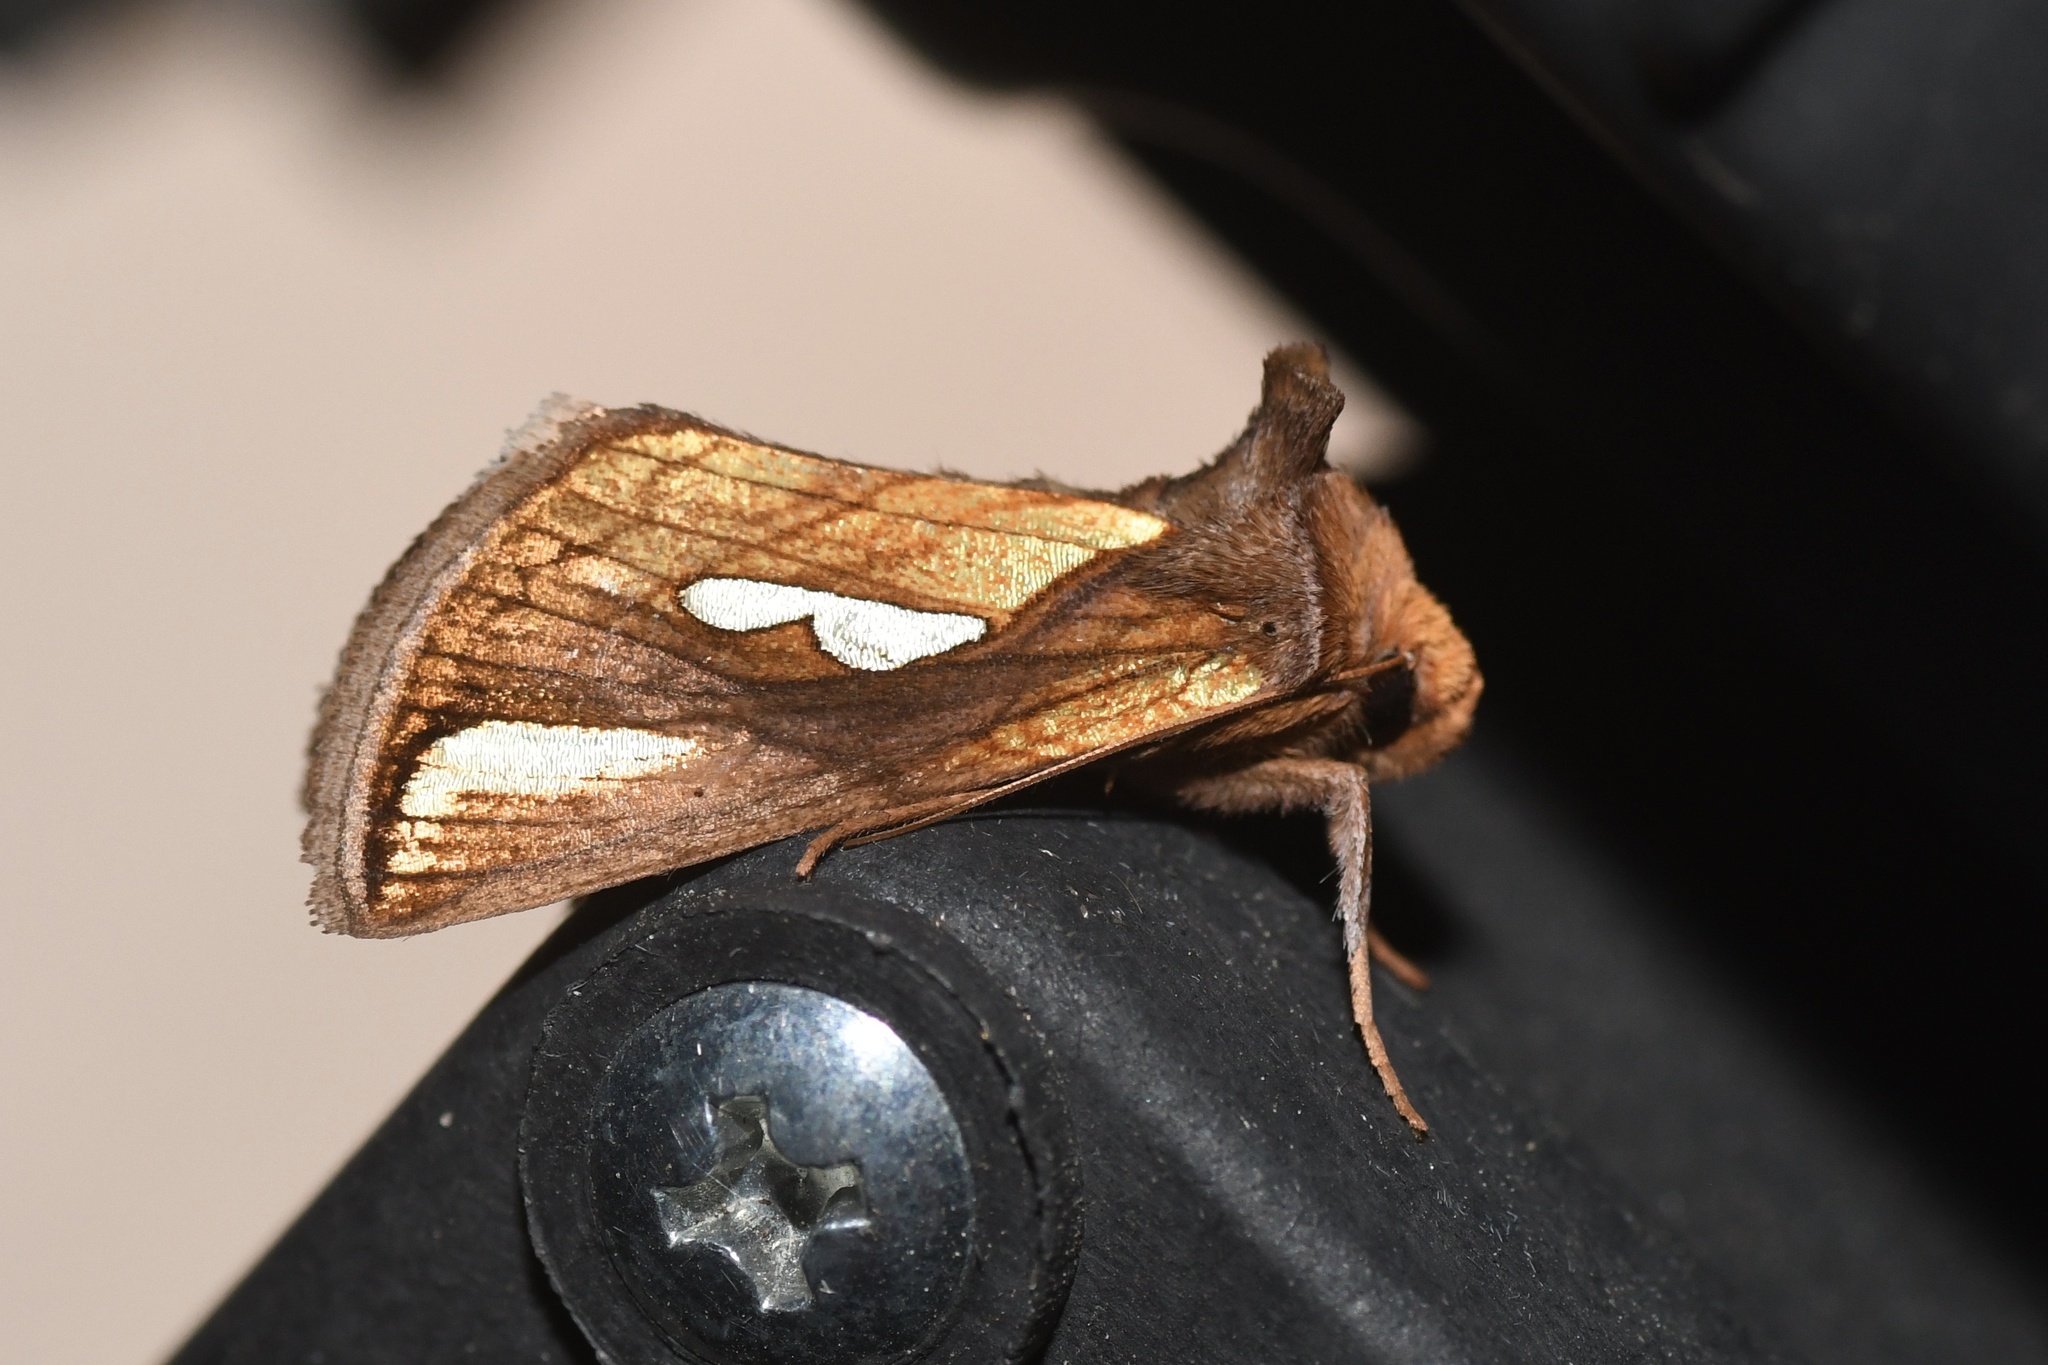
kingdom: Animalia
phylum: Arthropoda
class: Insecta
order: Lepidoptera
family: Noctuidae
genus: Plusia
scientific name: Plusia contexta
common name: Connected looper moth
